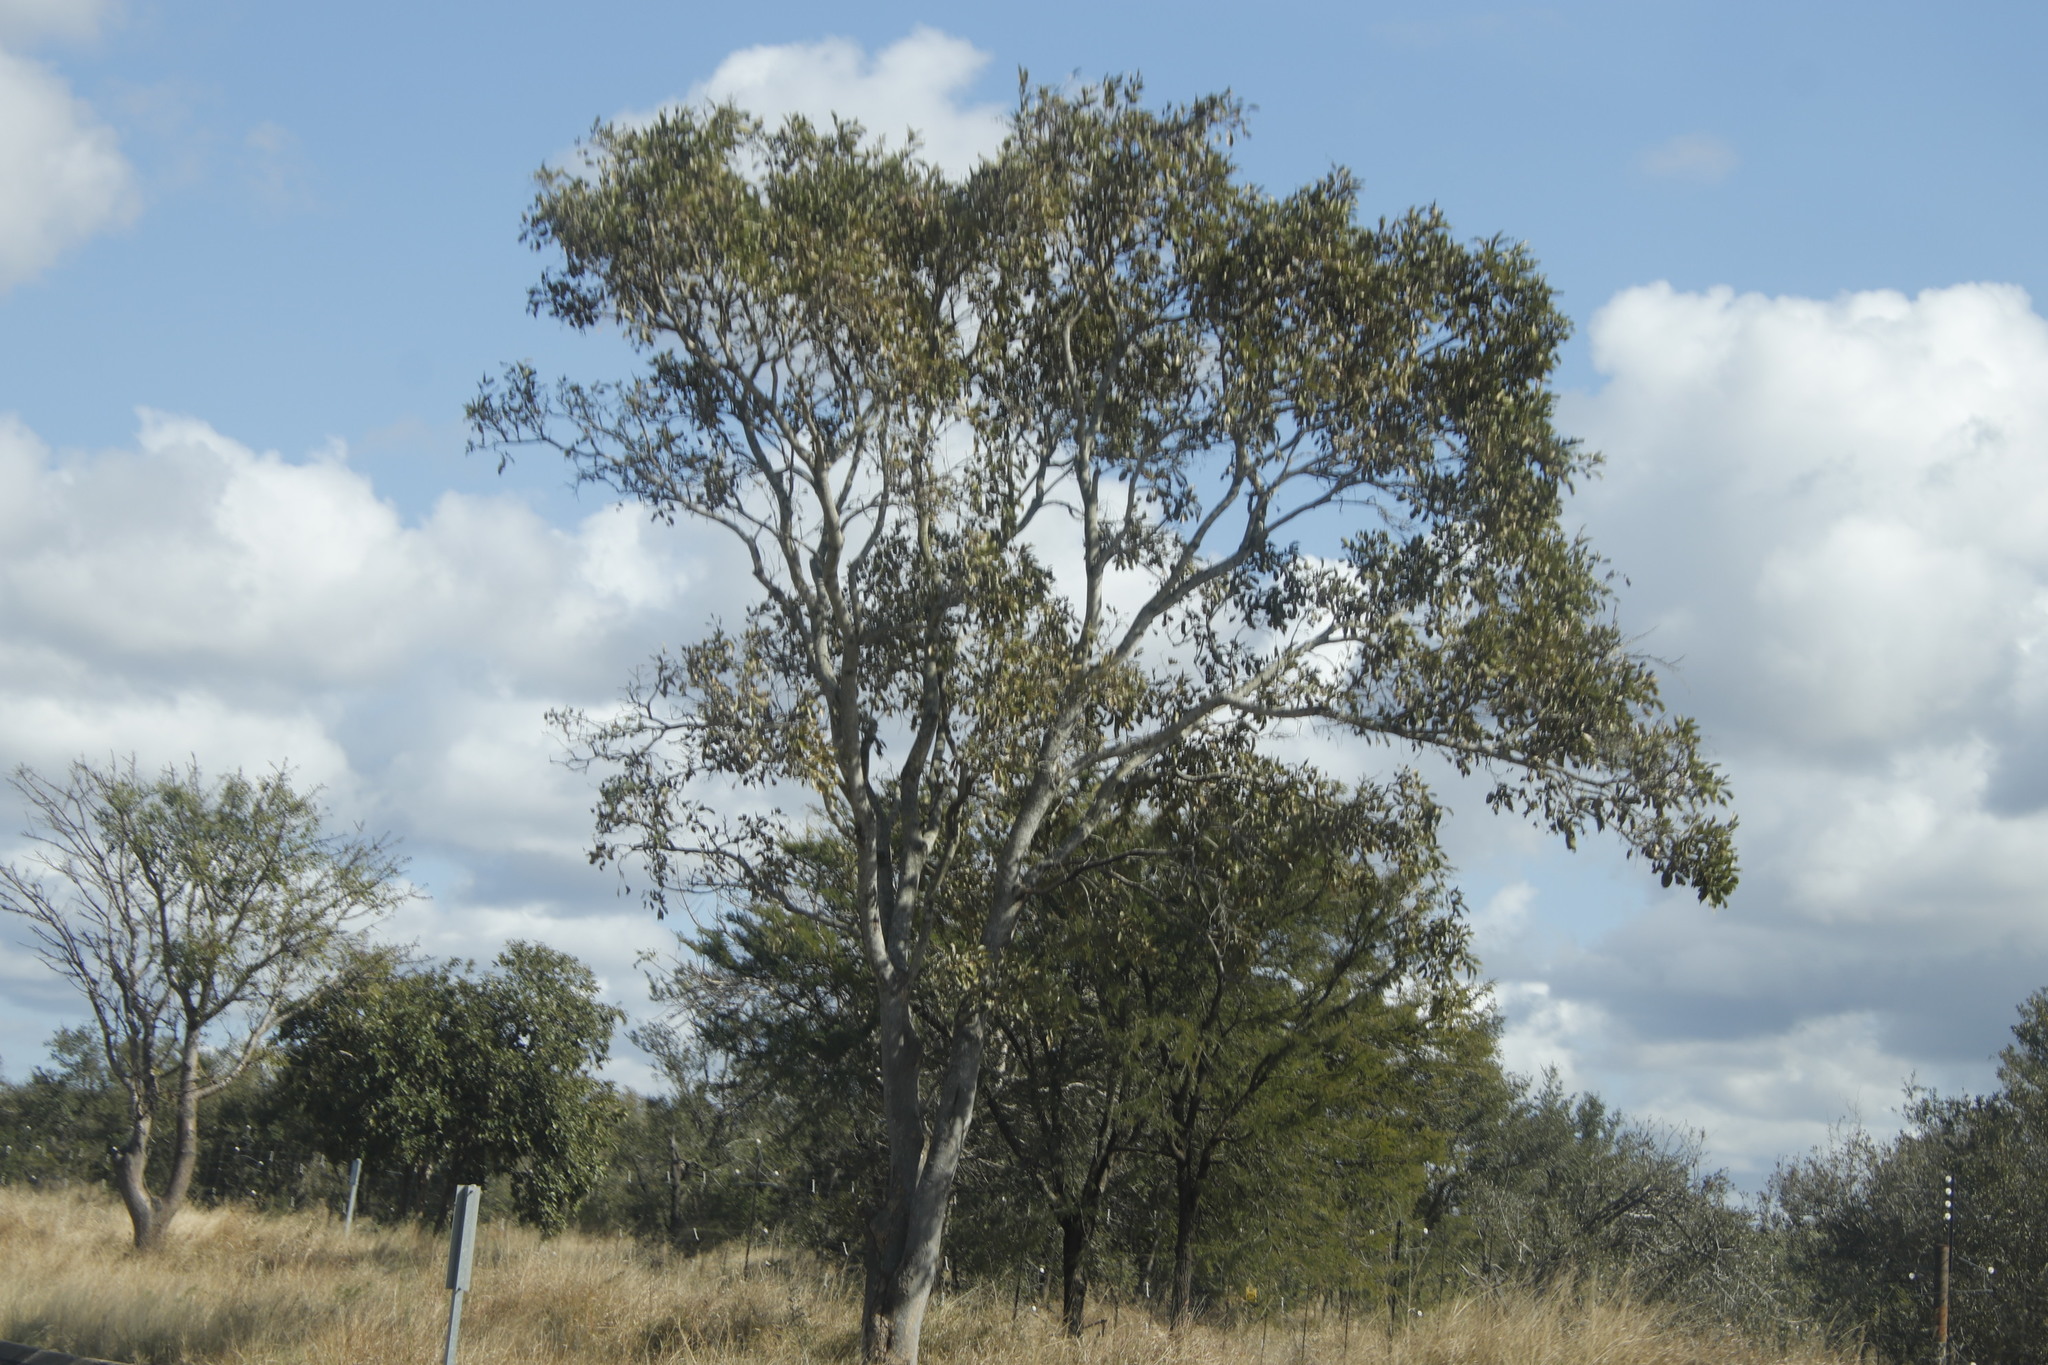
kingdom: Plantae
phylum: Tracheophyta
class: Magnoliopsida
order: Fabales
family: Fabaceae
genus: Philenoptera
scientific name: Philenoptera violacea
